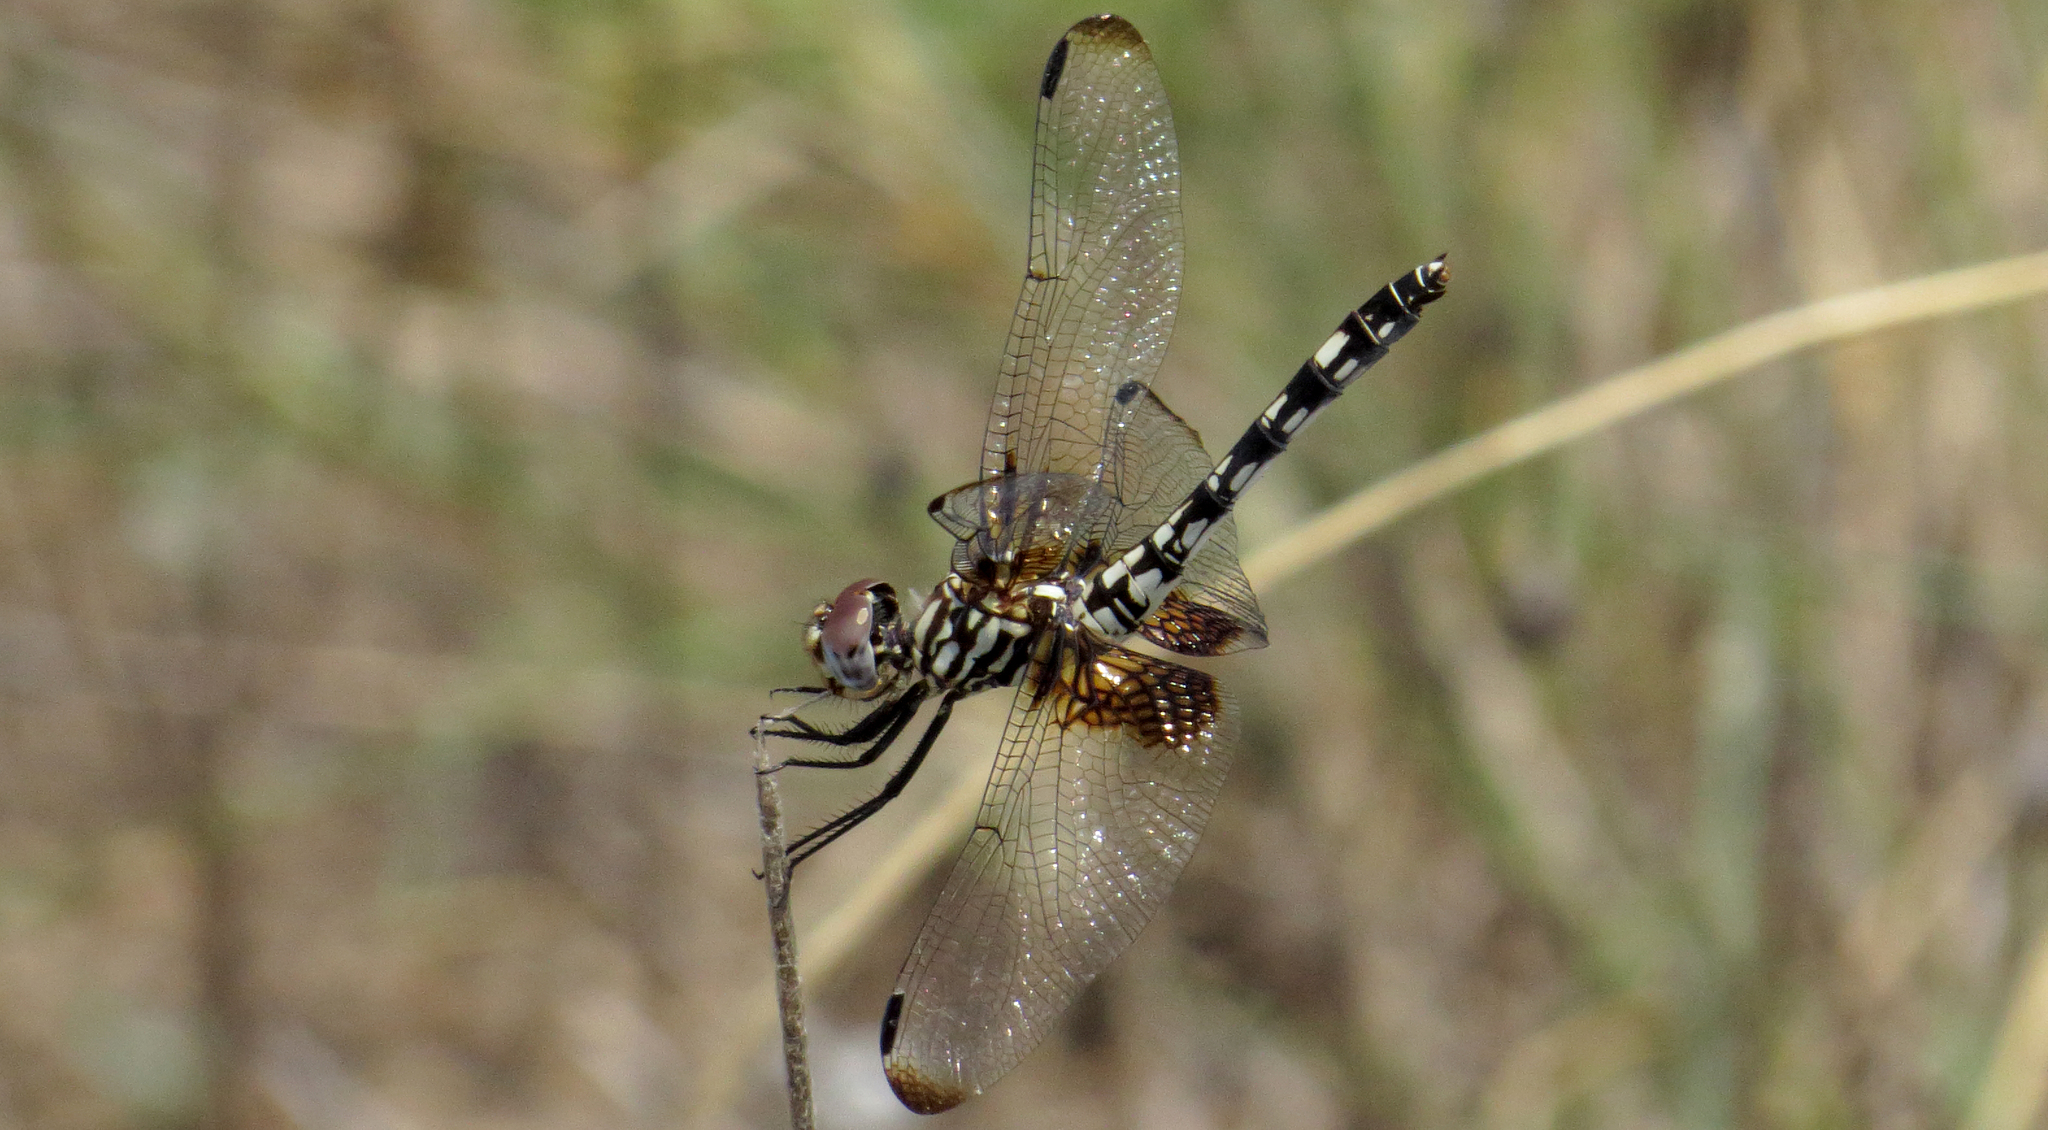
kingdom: Animalia
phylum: Arthropoda
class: Insecta
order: Odonata
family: Libellulidae
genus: Dythemis
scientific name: Dythemis fugax
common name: Checkered setwing
